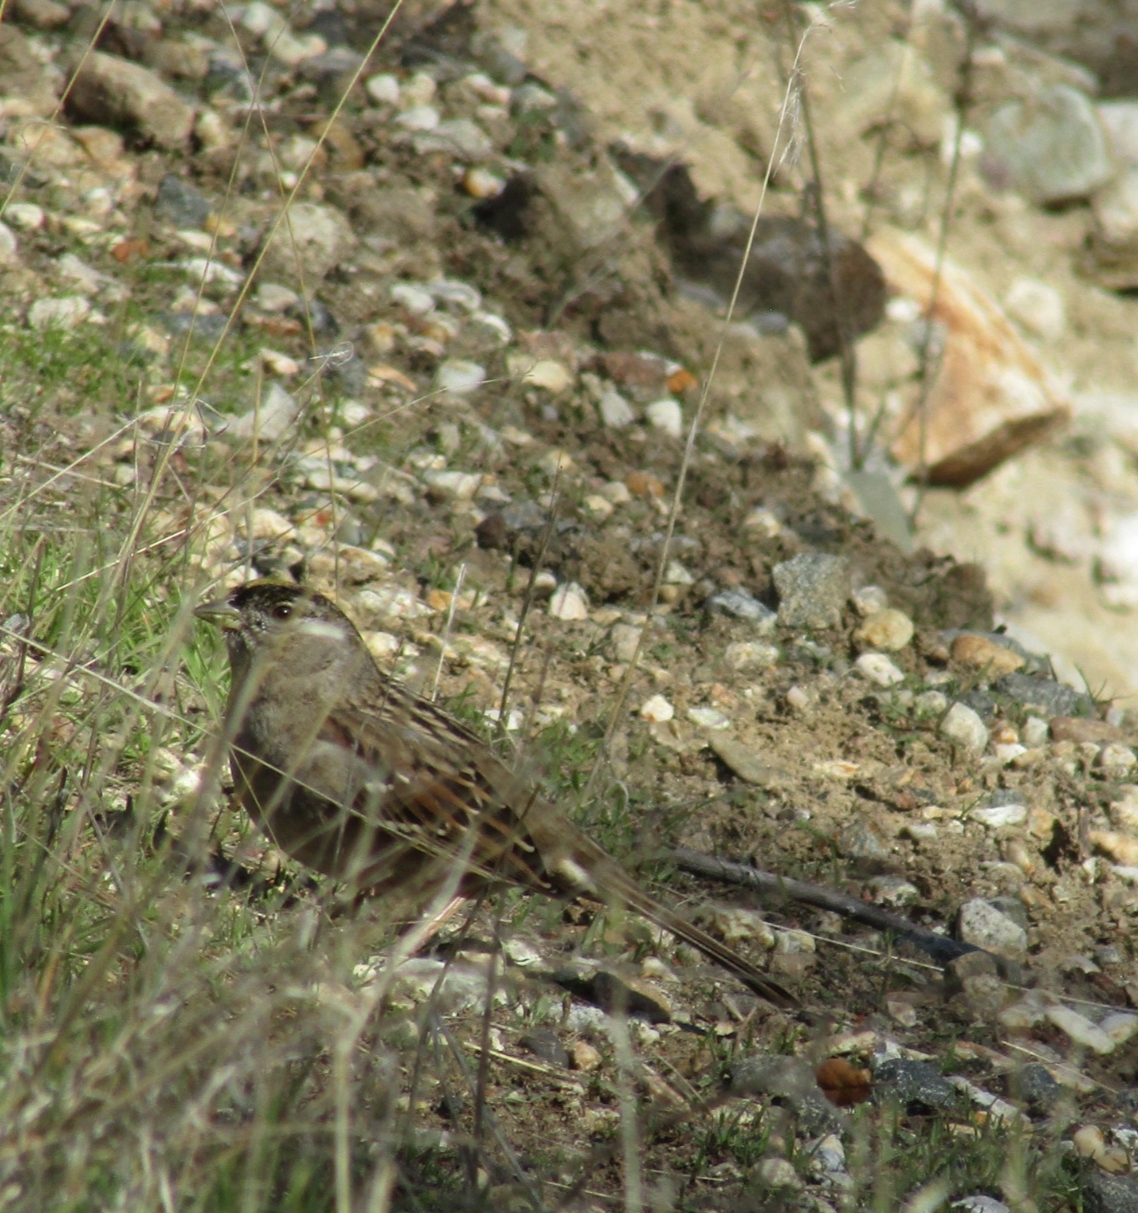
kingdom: Animalia
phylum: Chordata
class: Aves
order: Passeriformes
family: Passerellidae
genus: Zonotrichia
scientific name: Zonotrichia atricapilla
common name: Golden-crowned sparrow
